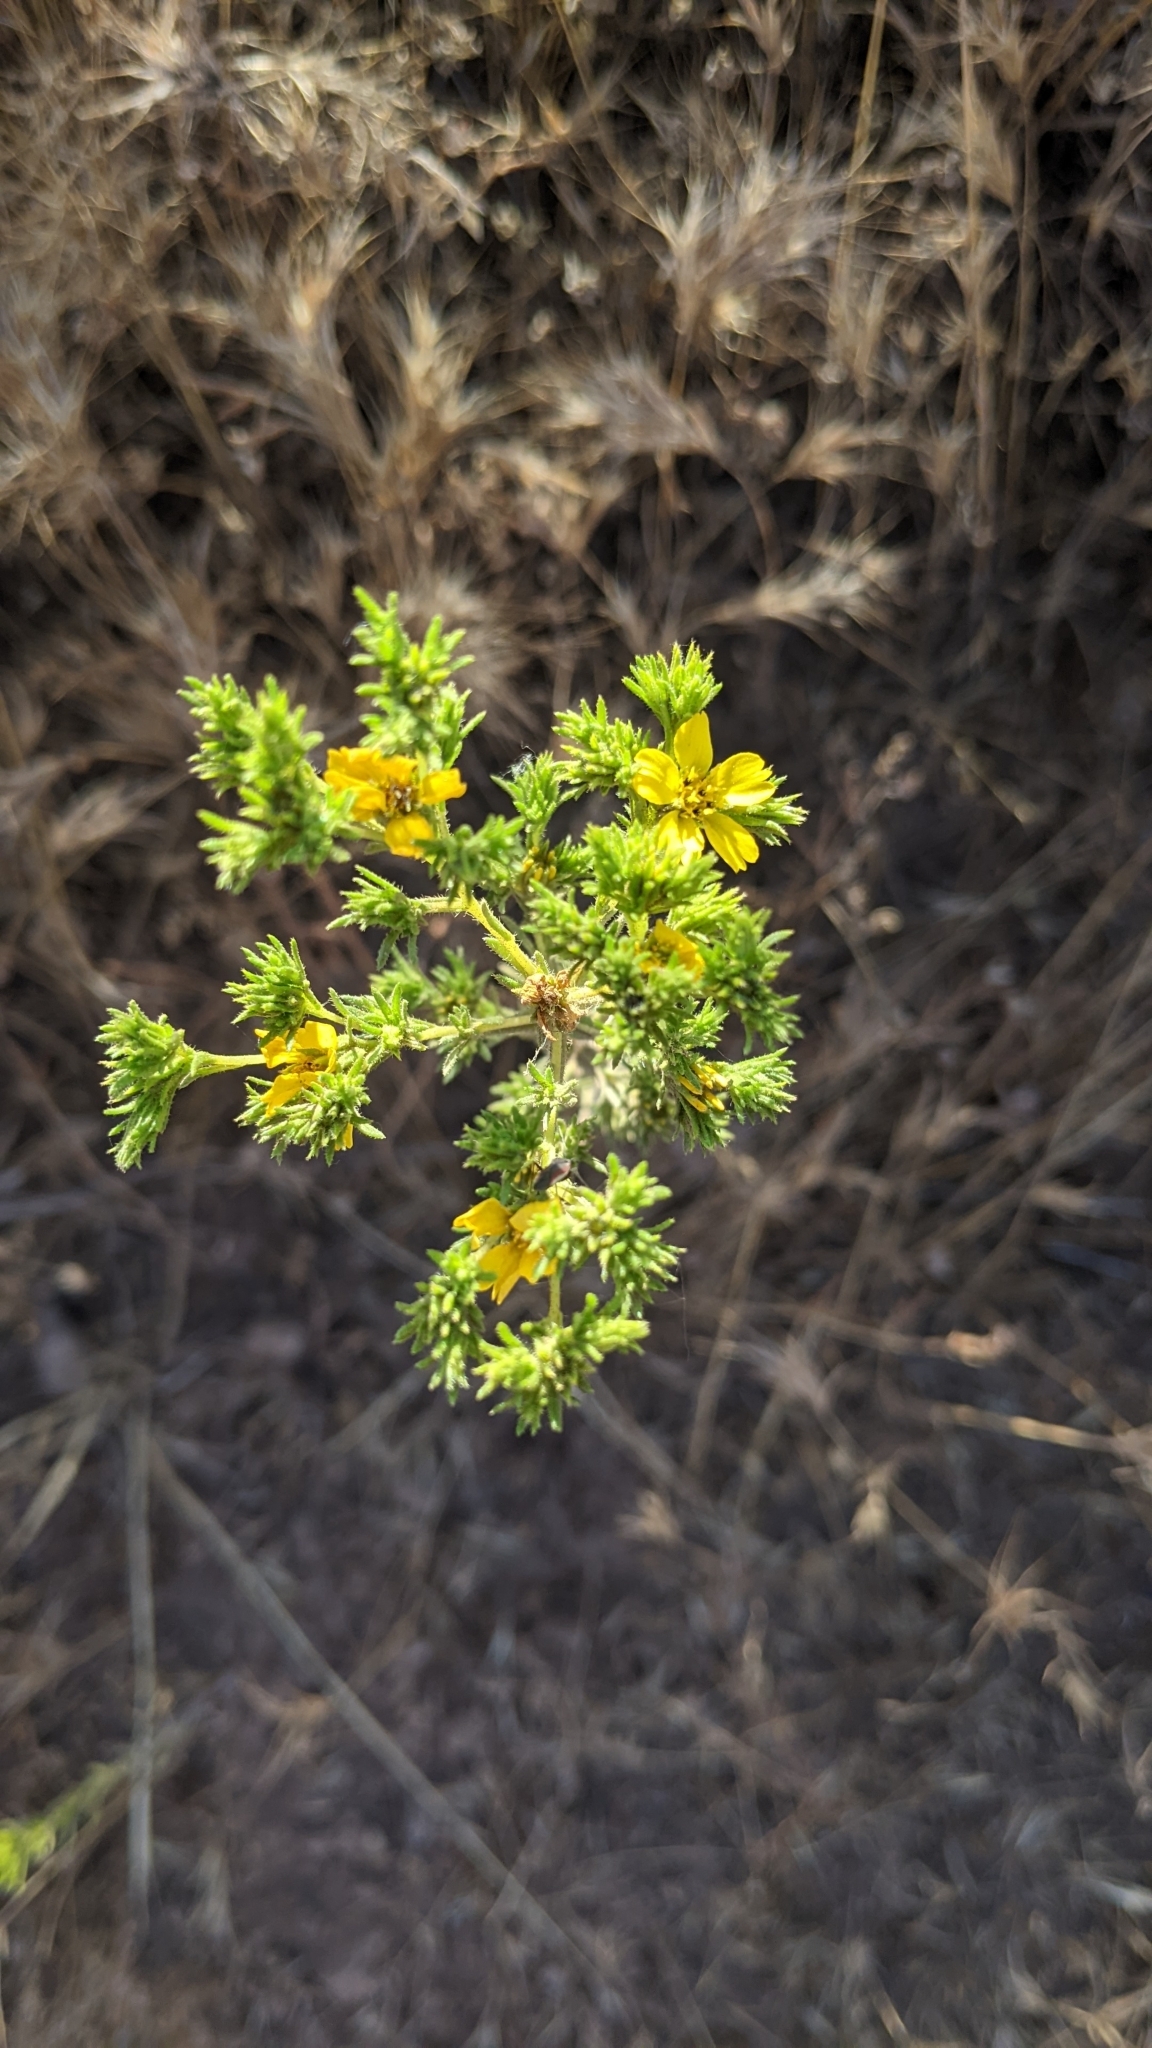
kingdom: Plantae
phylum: Tracheophyta
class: Magnoliopsida
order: Asterales
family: Asteraceae
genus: Deinandra
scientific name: Deinandra fasciculata
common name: Clustered tarweed
